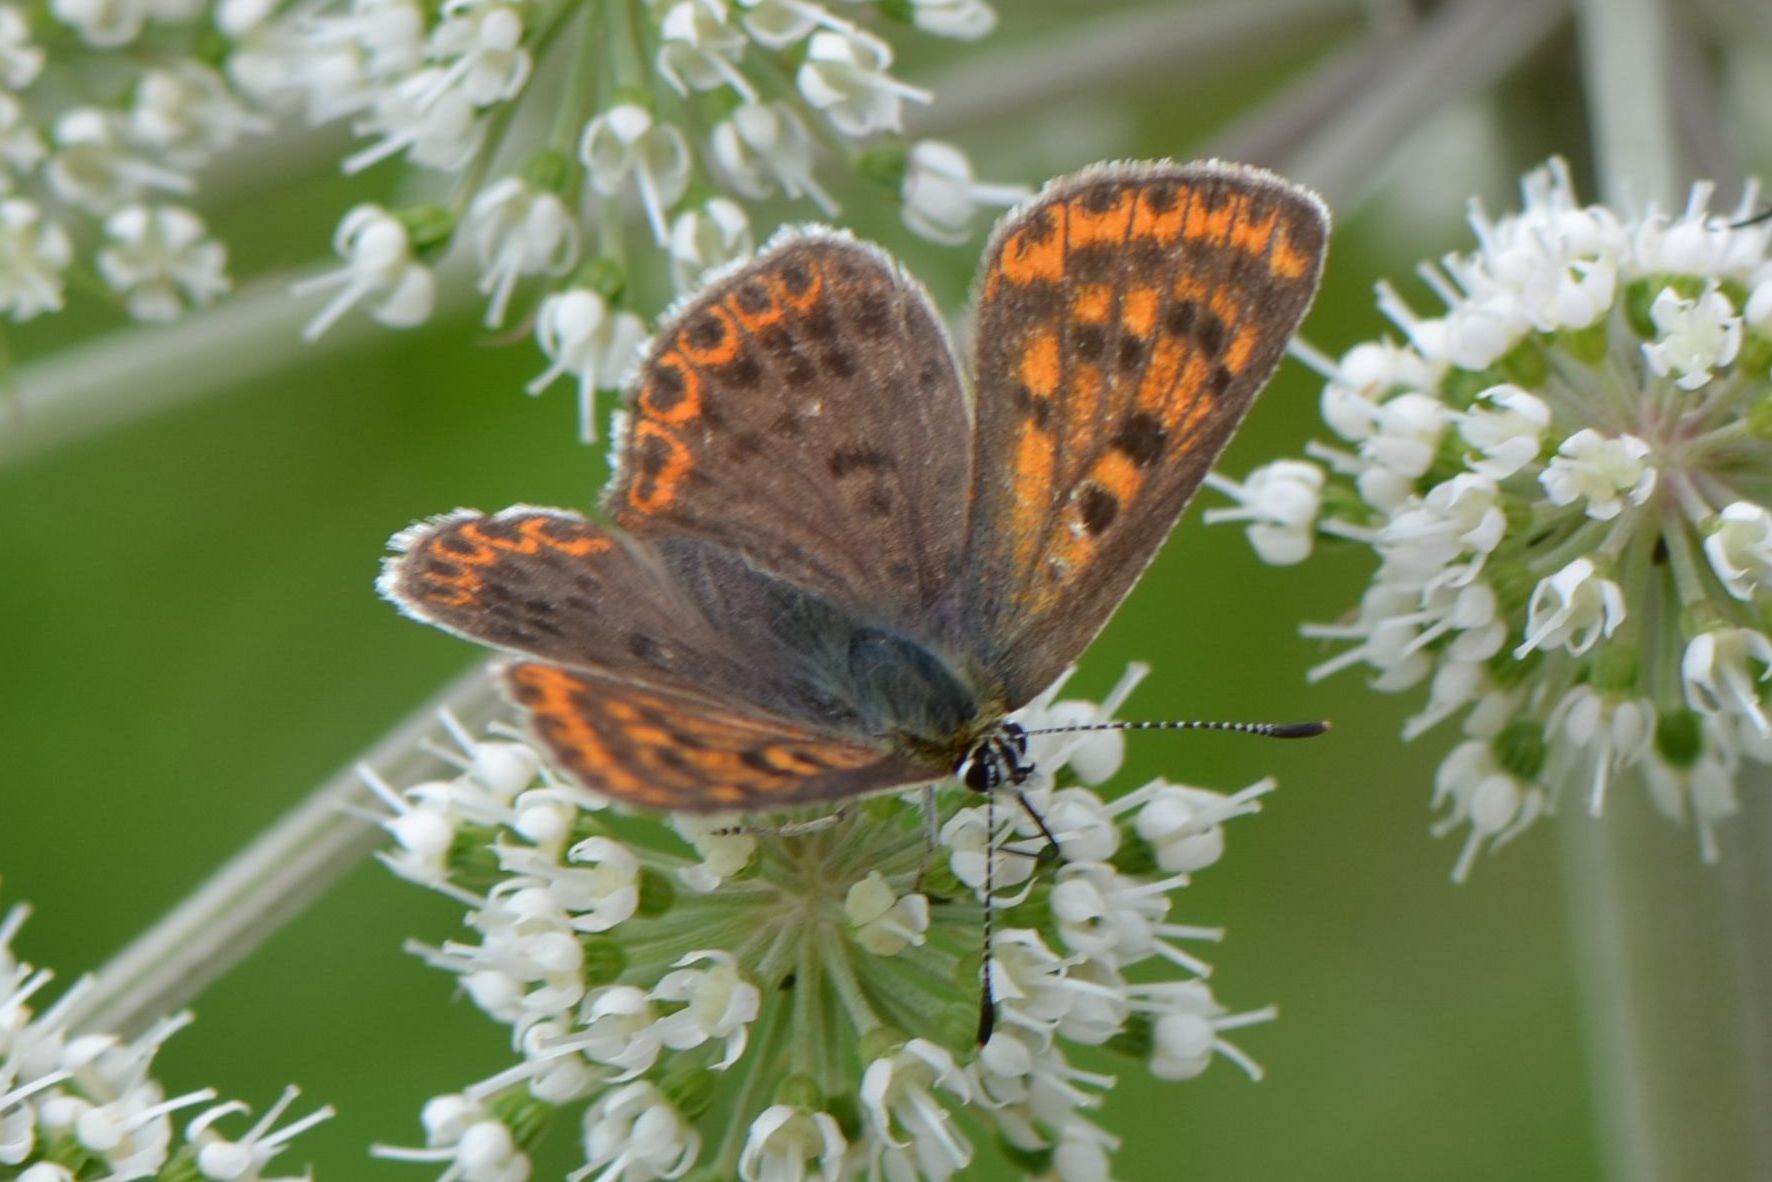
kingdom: Animalia
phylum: Arthropoda
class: Insecta
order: Lepidoptera
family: Lycaenidae
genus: Loweia
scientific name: Loweia tityrus
